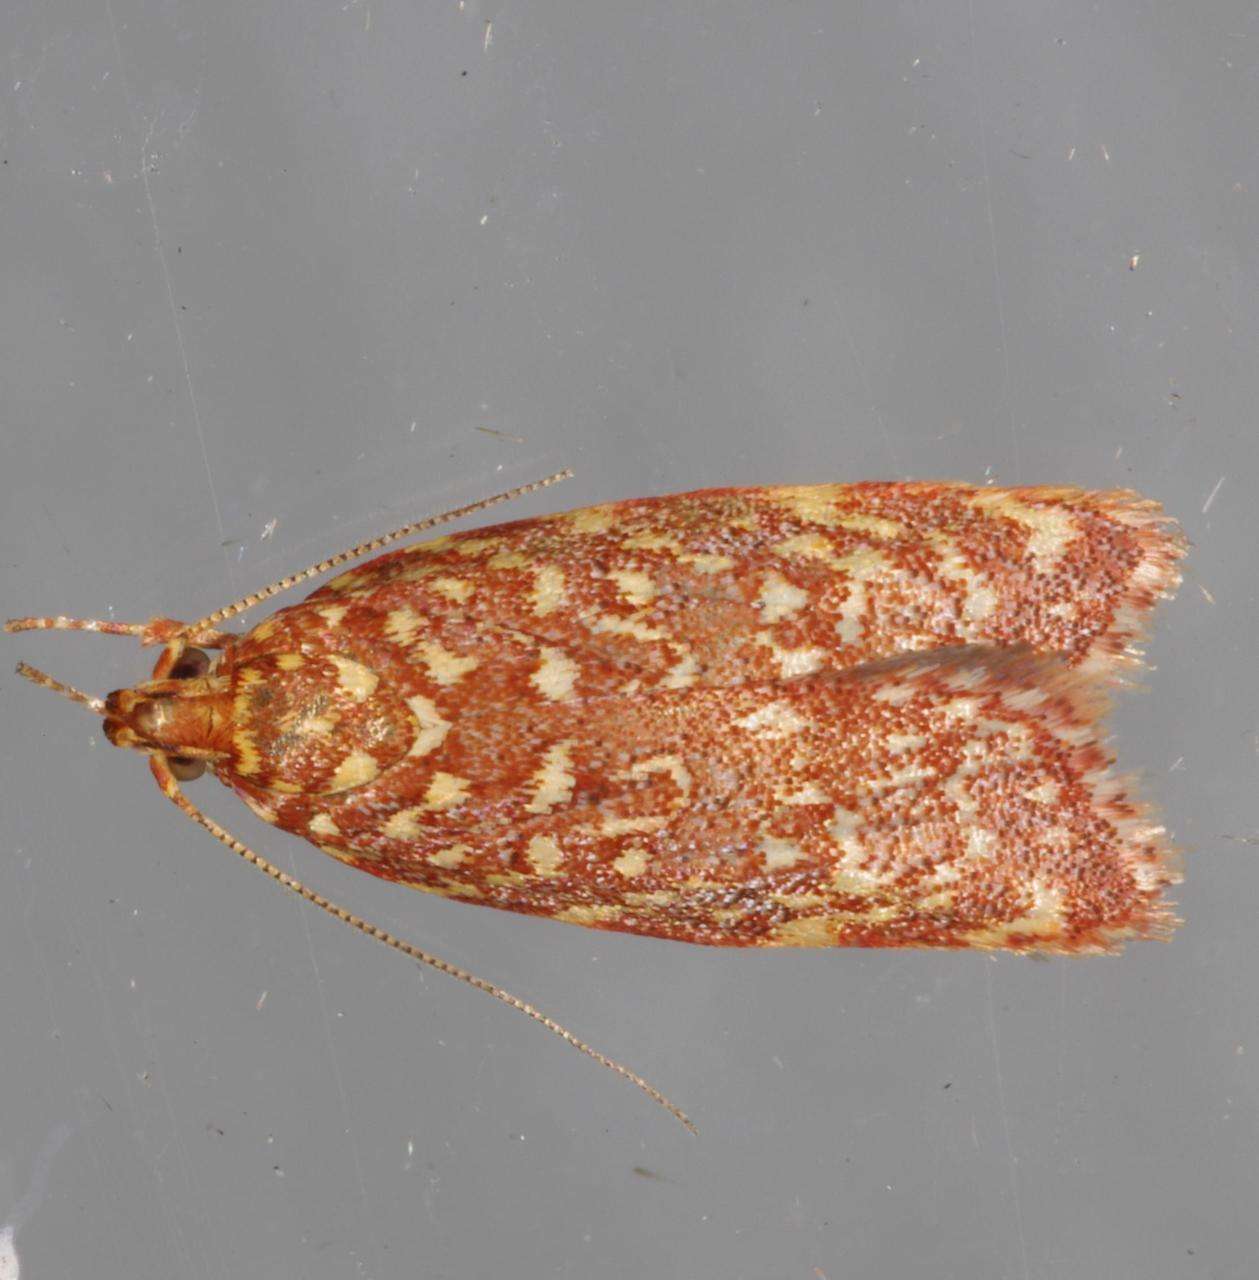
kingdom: Animalia
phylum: Arthropoda
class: Insecta
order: Lepidoptera
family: Oecophoridae
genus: Syringoseca
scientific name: Syringoseca rhodoxantha
